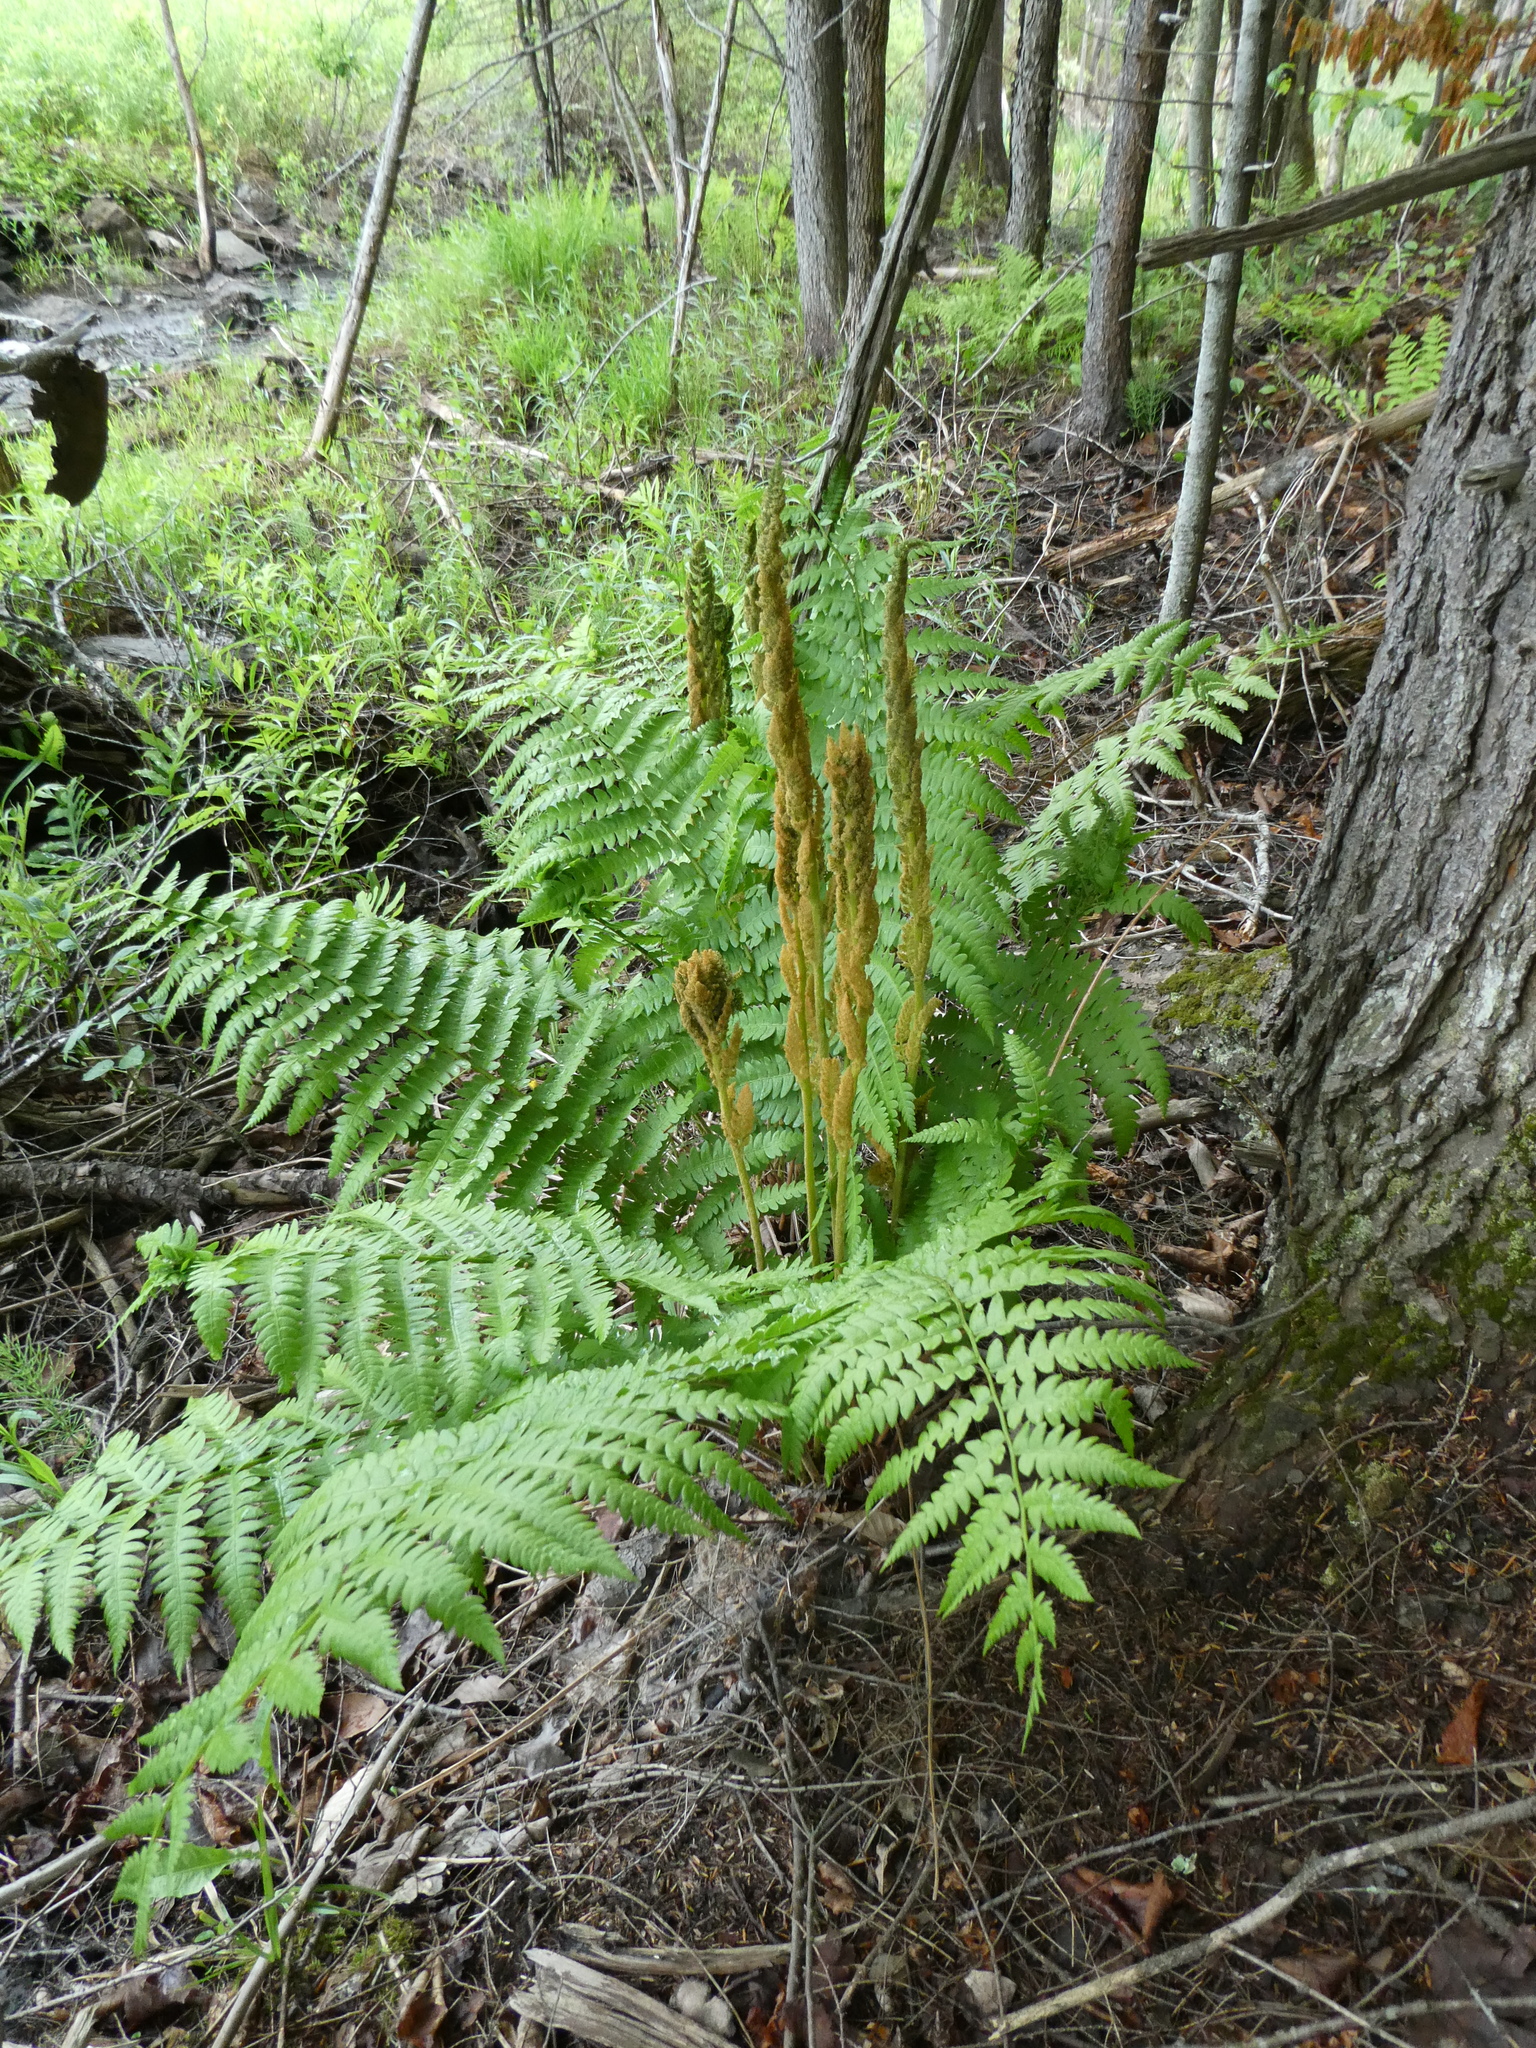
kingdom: Plantae
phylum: Tracheophyta
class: Polypodiopsida
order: Osmundales
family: Osmundaceae
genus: Osmundastrum
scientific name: Osmundastrum cinnamomeum
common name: Cinnamon fern
